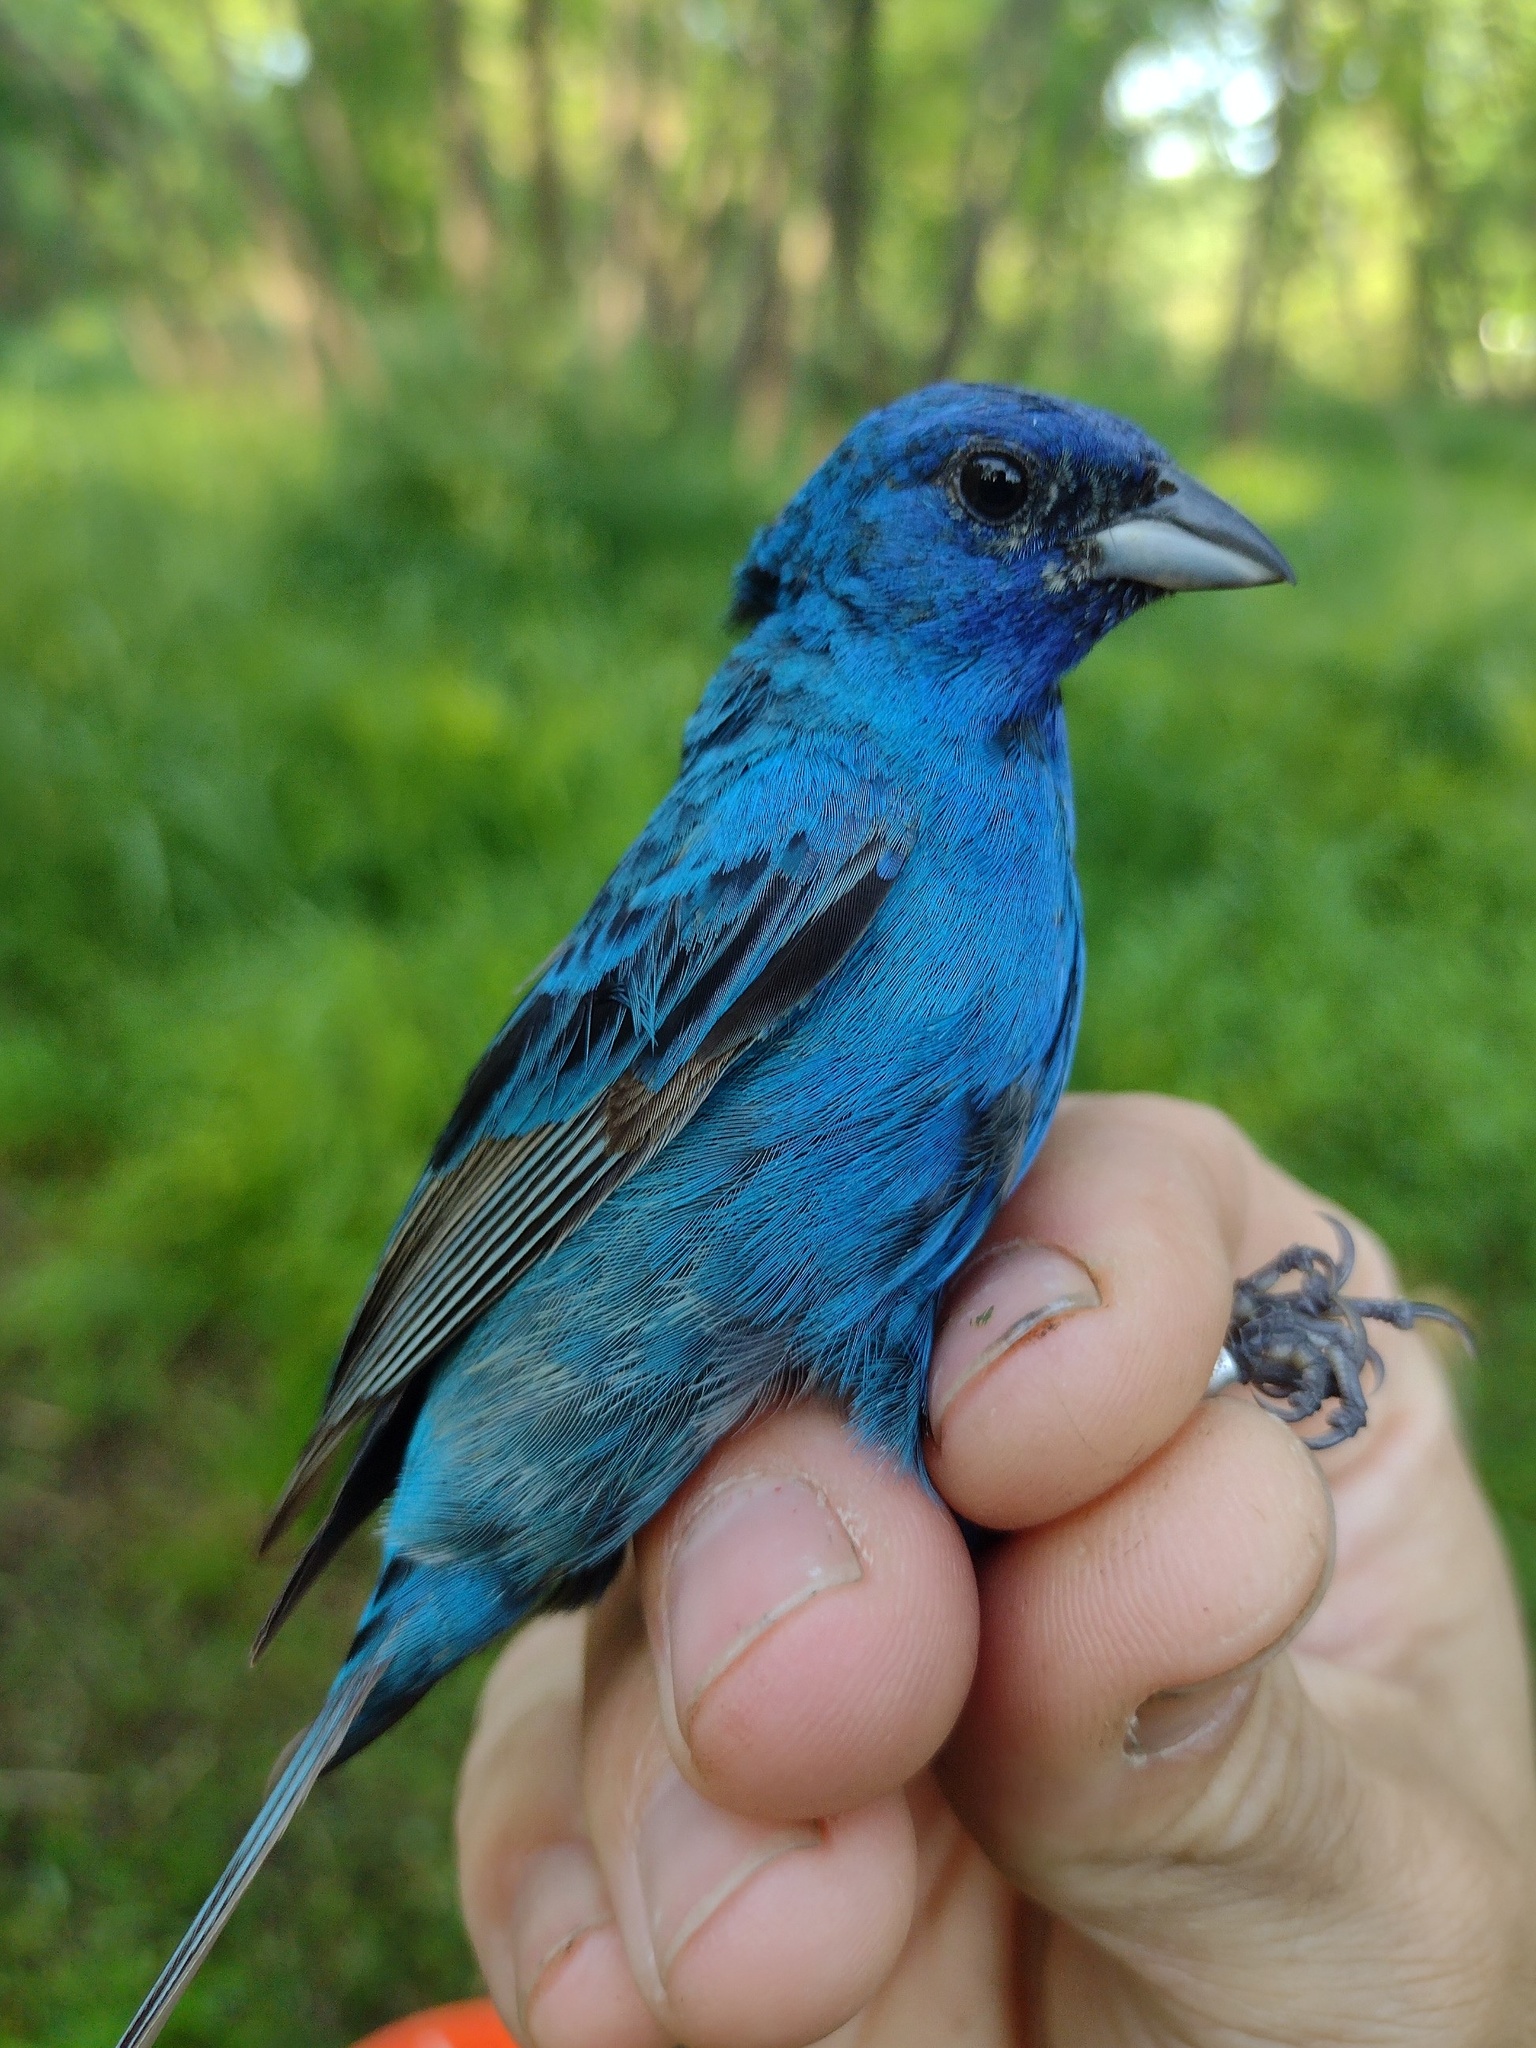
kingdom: Animalia
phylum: Chordata
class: Aves
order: Passeriformes
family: Cardinalidae
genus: Passerina
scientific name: Passerina cyanea
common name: Indigo bunting
